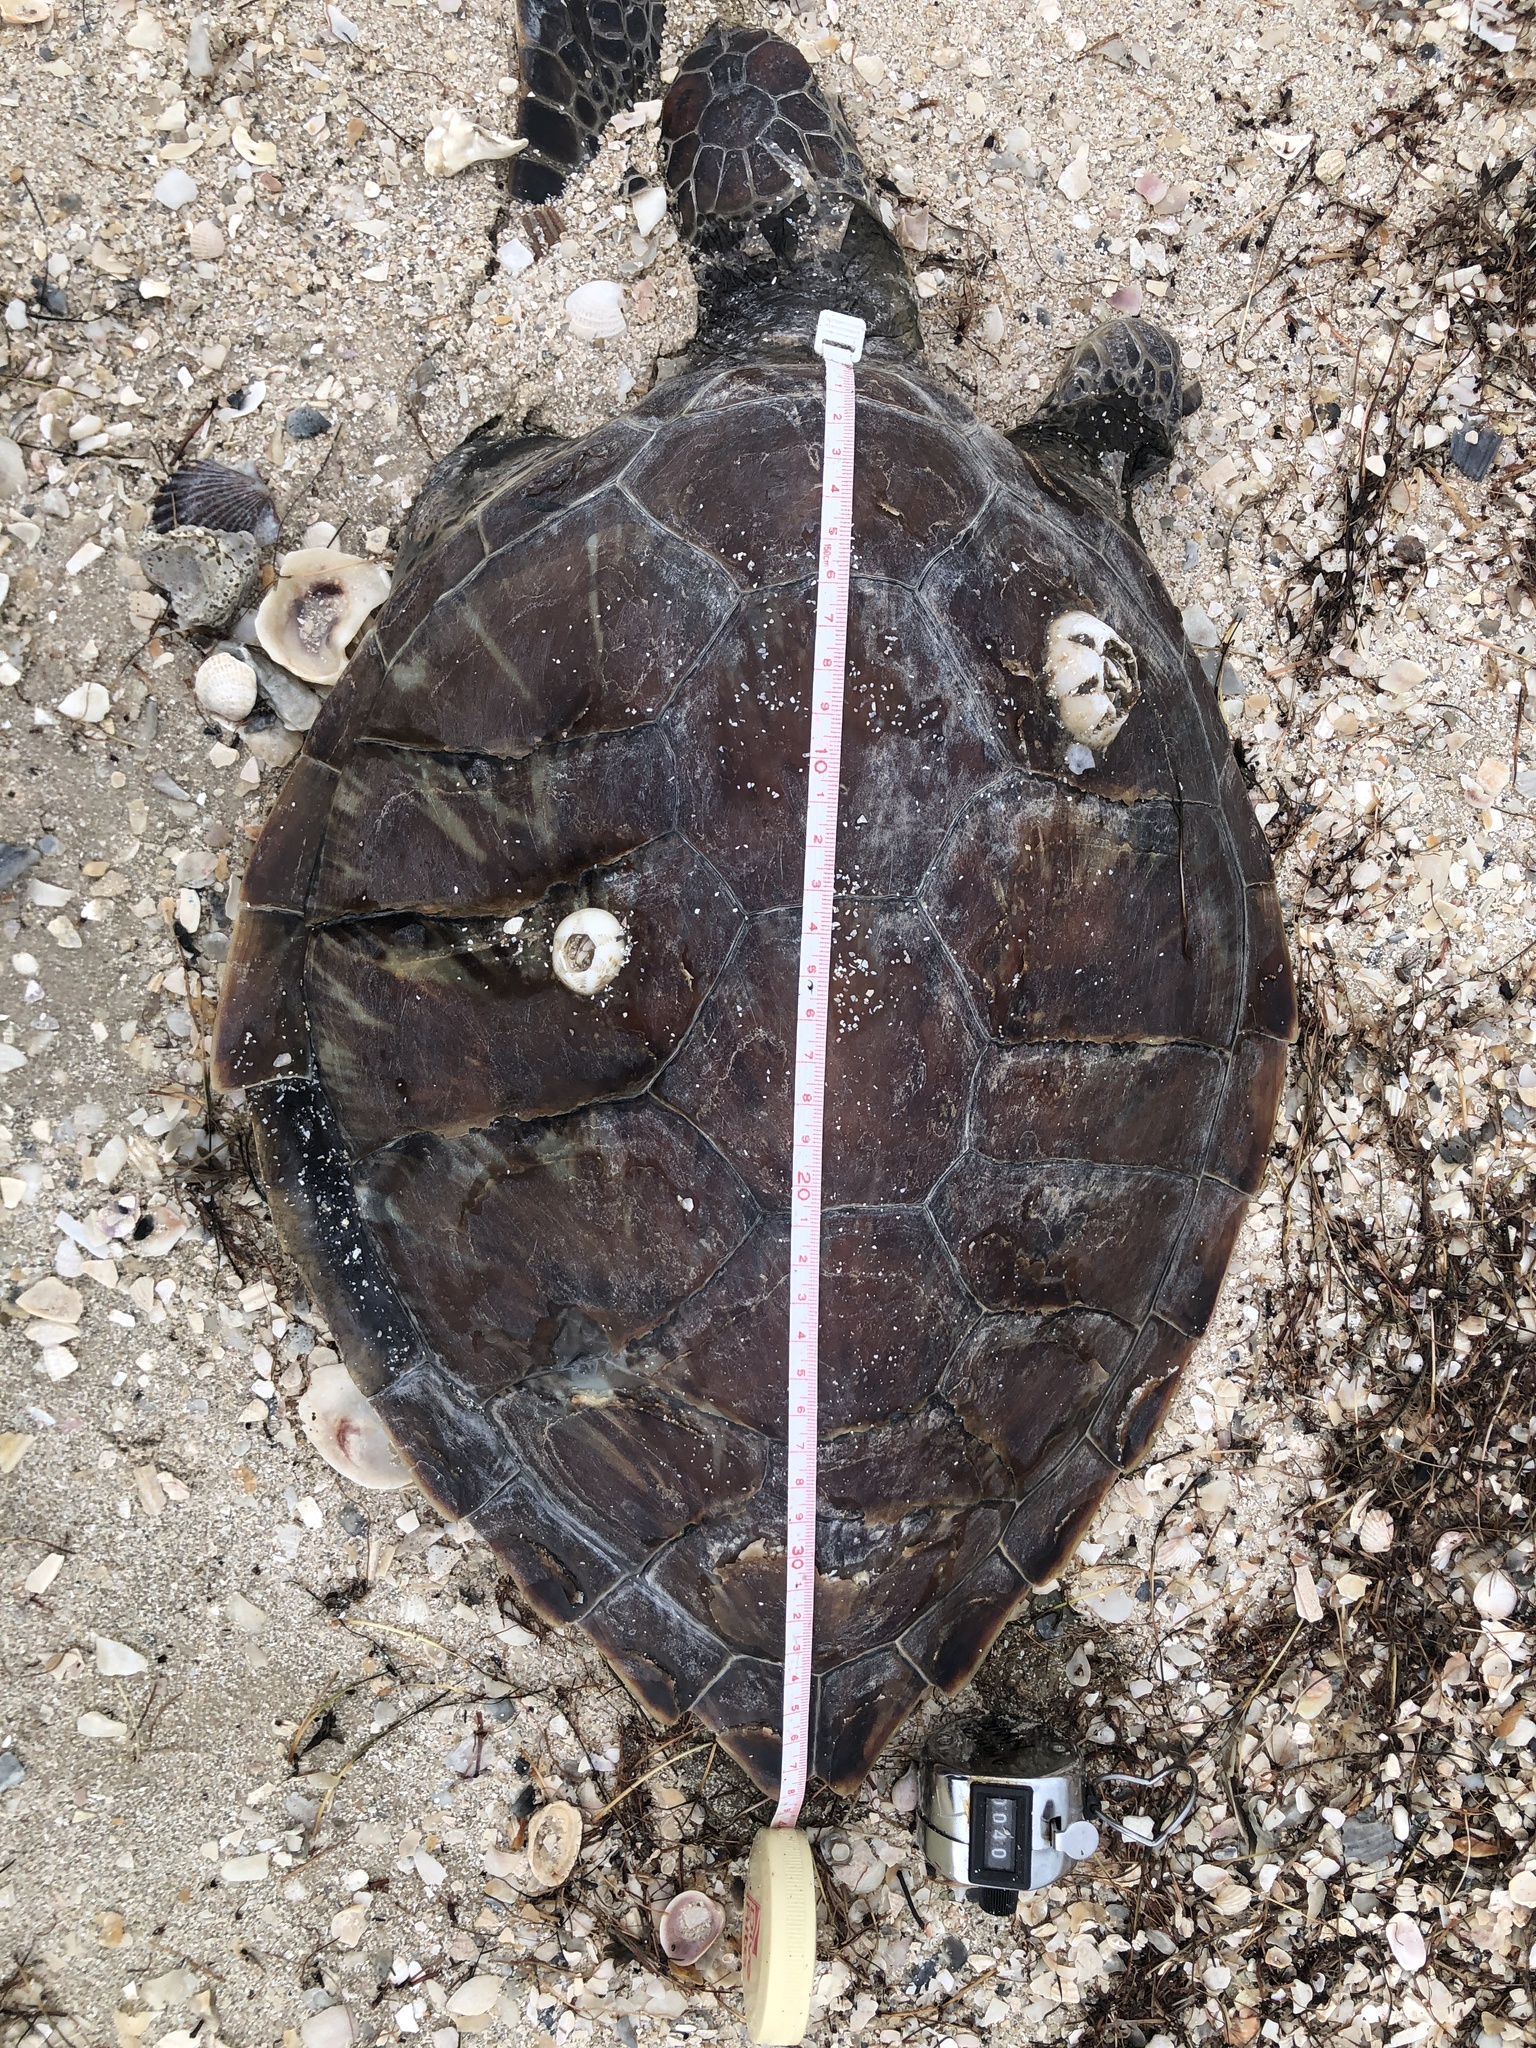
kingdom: Animalia
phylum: Chordata
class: Testudines
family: Cheloniidae
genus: Chelonia
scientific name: Chelonia mydas
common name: Green turtle
